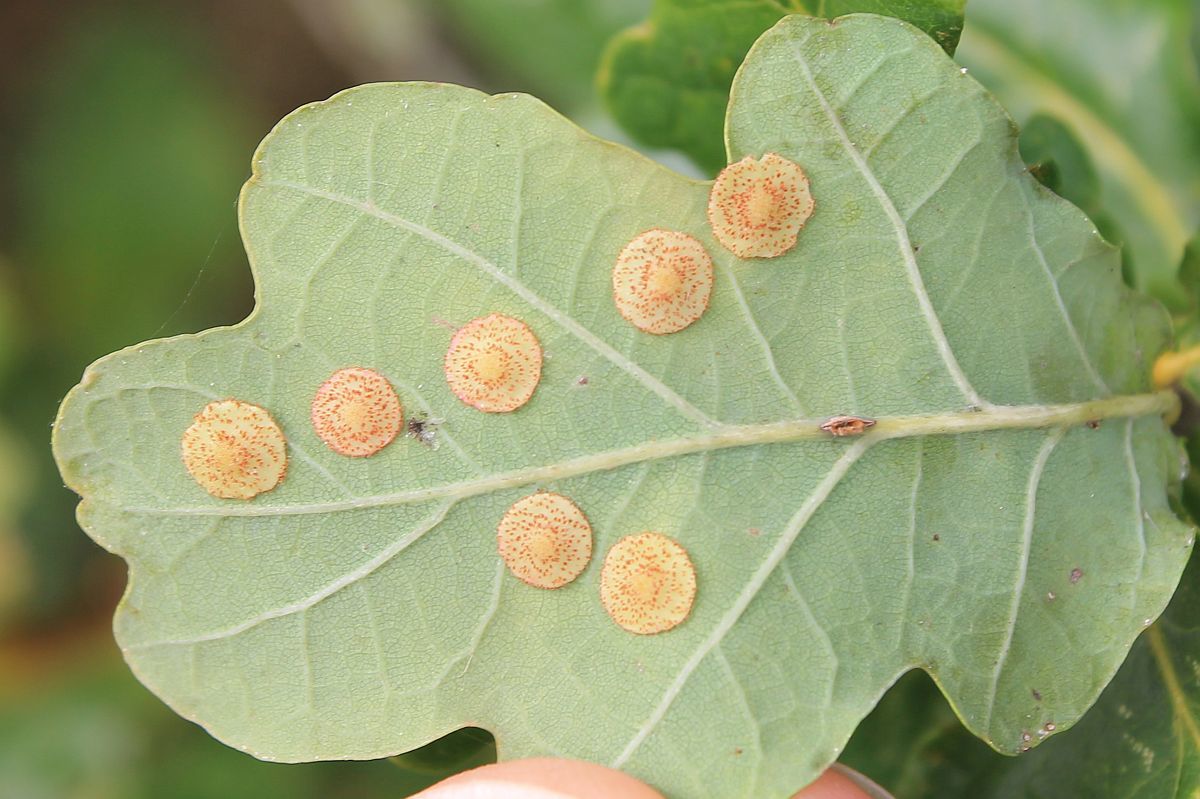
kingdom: Animalia
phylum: Arthropoda
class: Insecta
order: Hymenoptera
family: Cynipidae
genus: Neuroterus
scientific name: Neuroterus quercusbaccarum
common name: Common spangle gall
